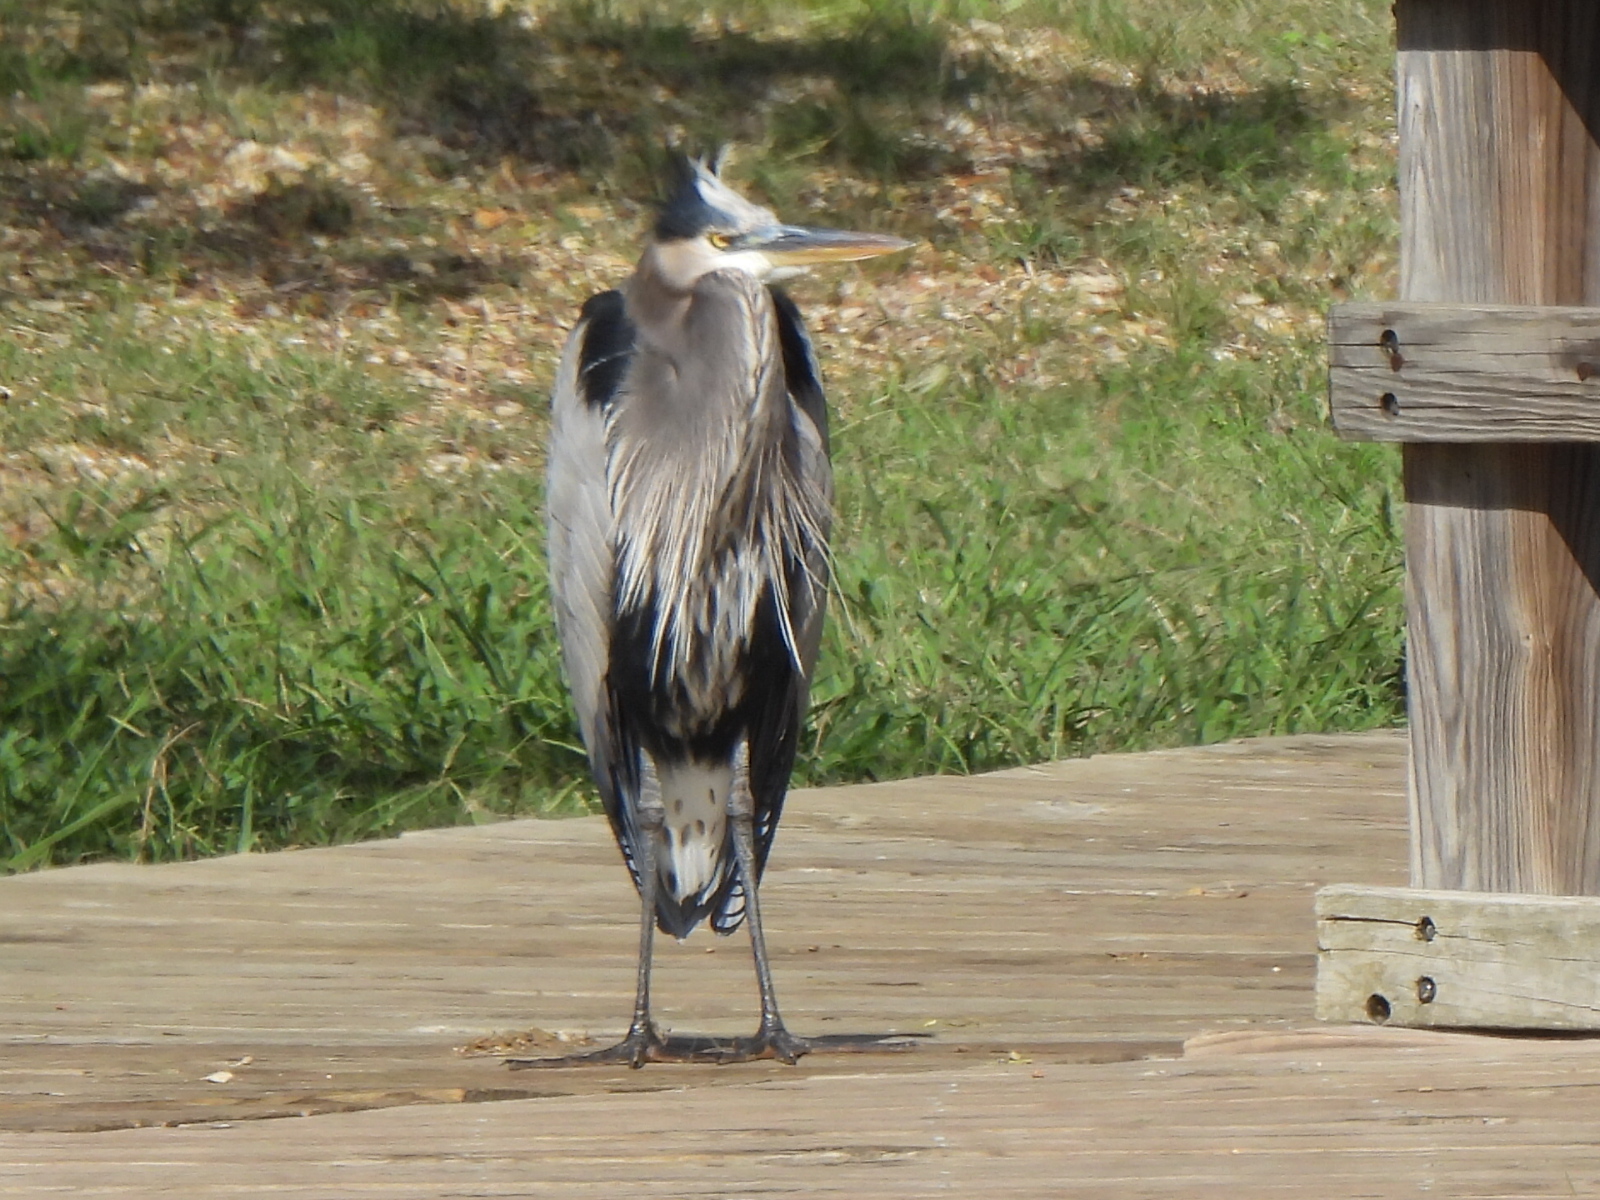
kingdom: Animalia
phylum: Chordata
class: Aves
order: Pelecaniformes
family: Ardeidae
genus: Ardea
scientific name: Ardea herodias
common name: Great blue heron
